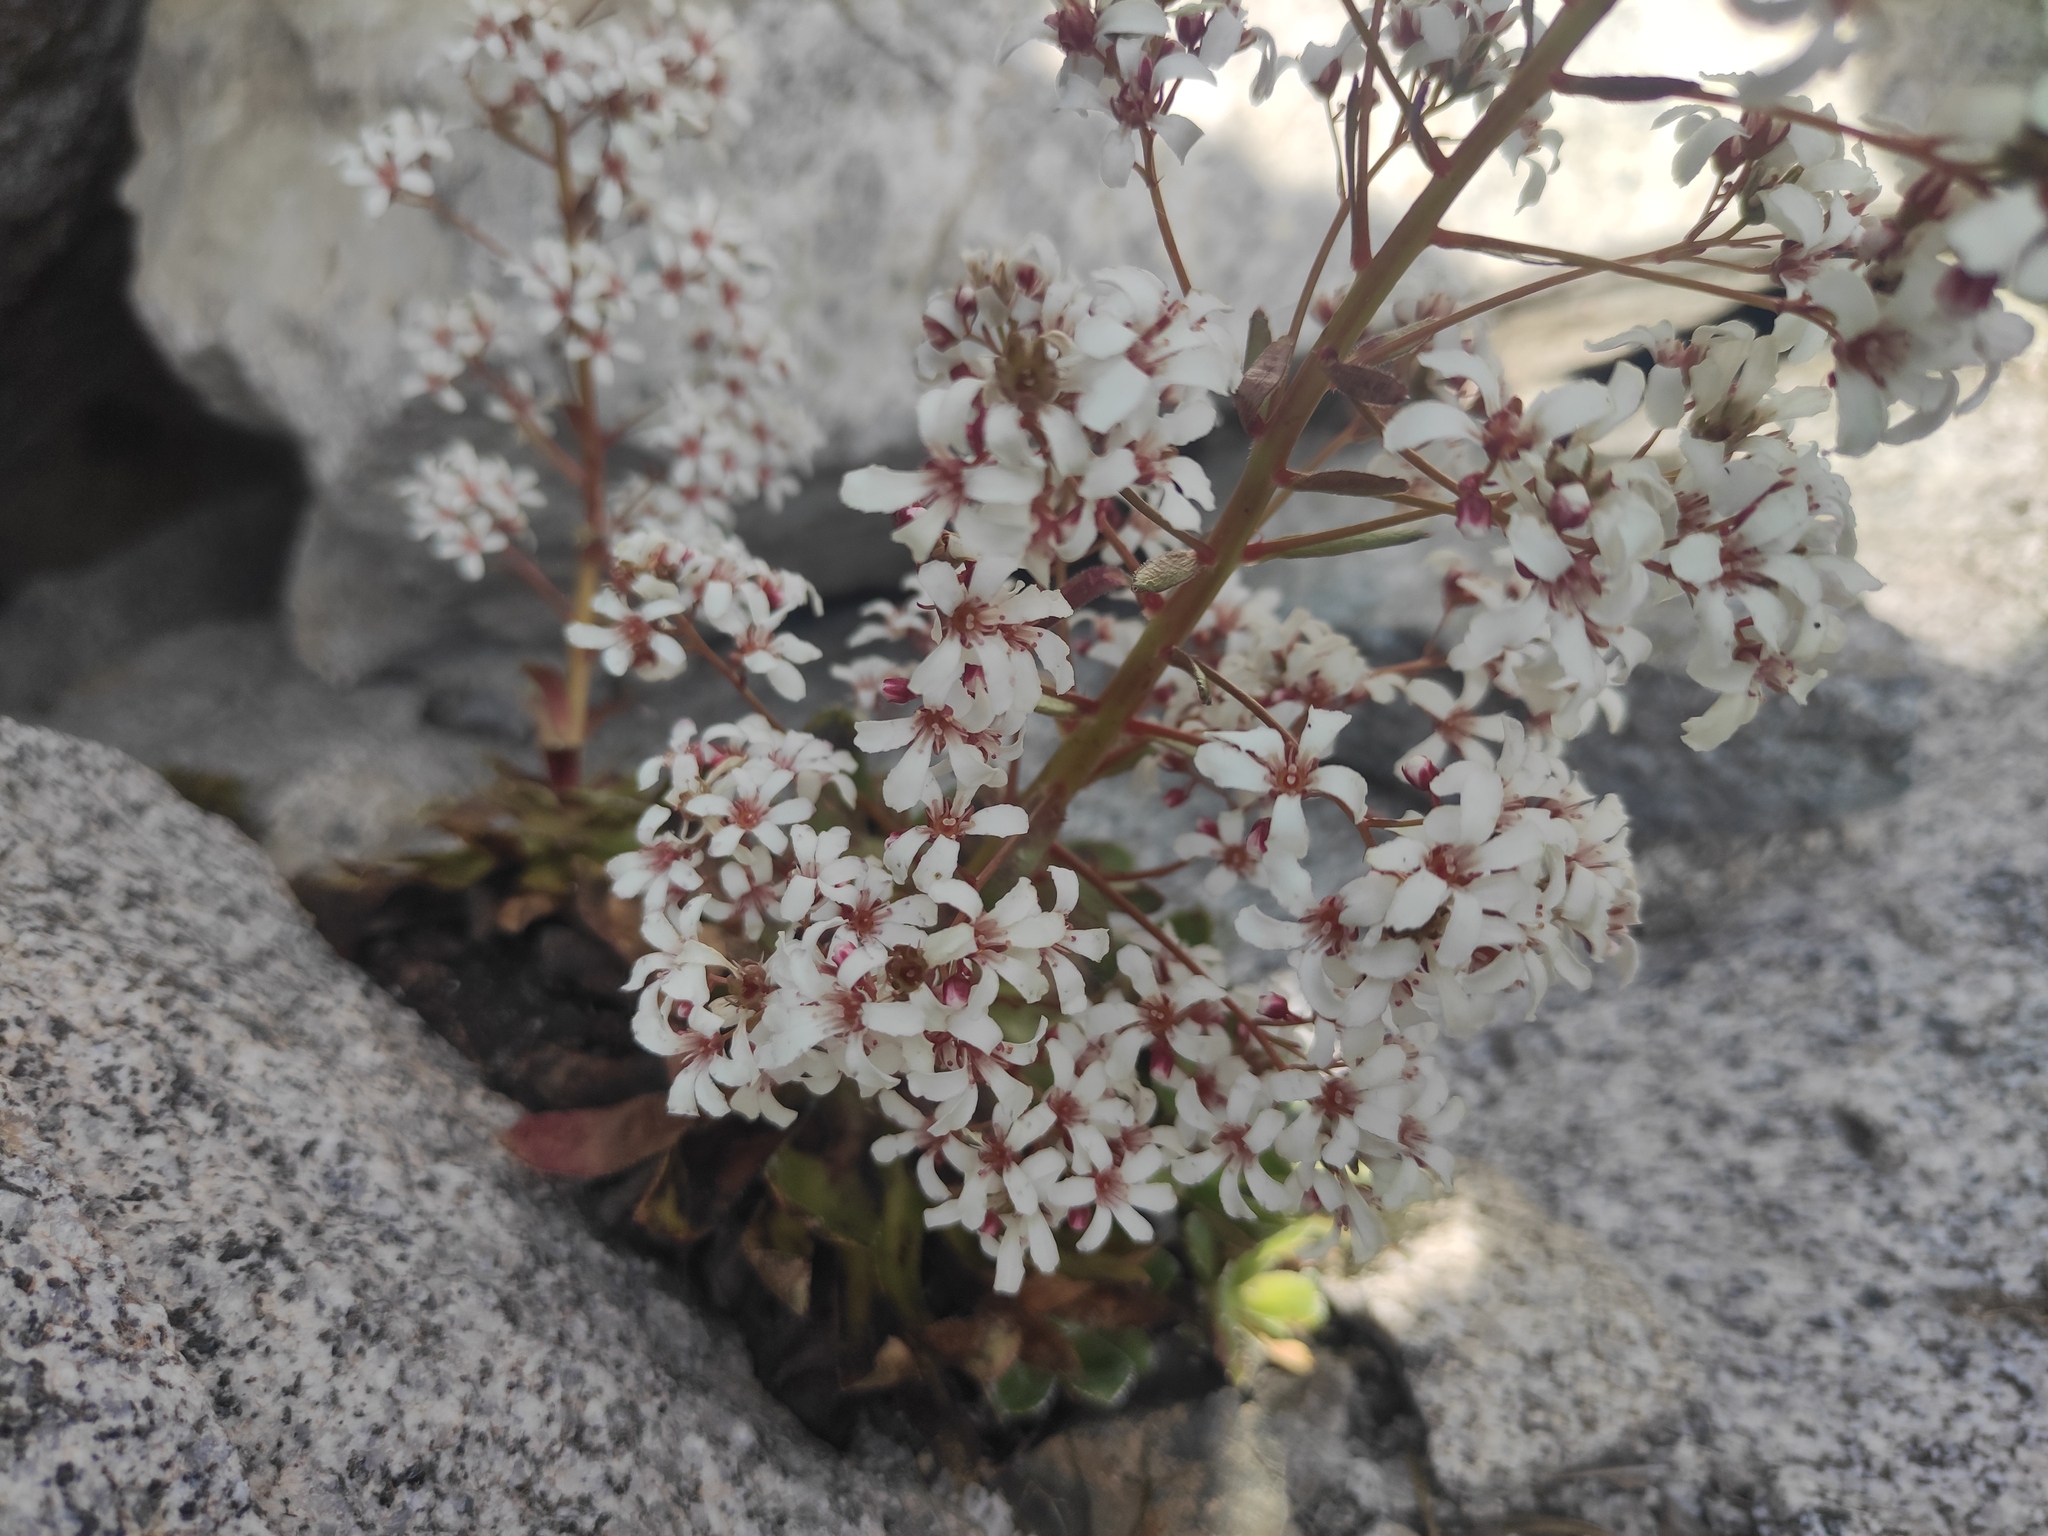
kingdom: Plantae
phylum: Tracheophyta
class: Magnoliopsida
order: Saxifragales
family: Saxifragaceae
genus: Saxifraga
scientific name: Saxifraga cotyledon
